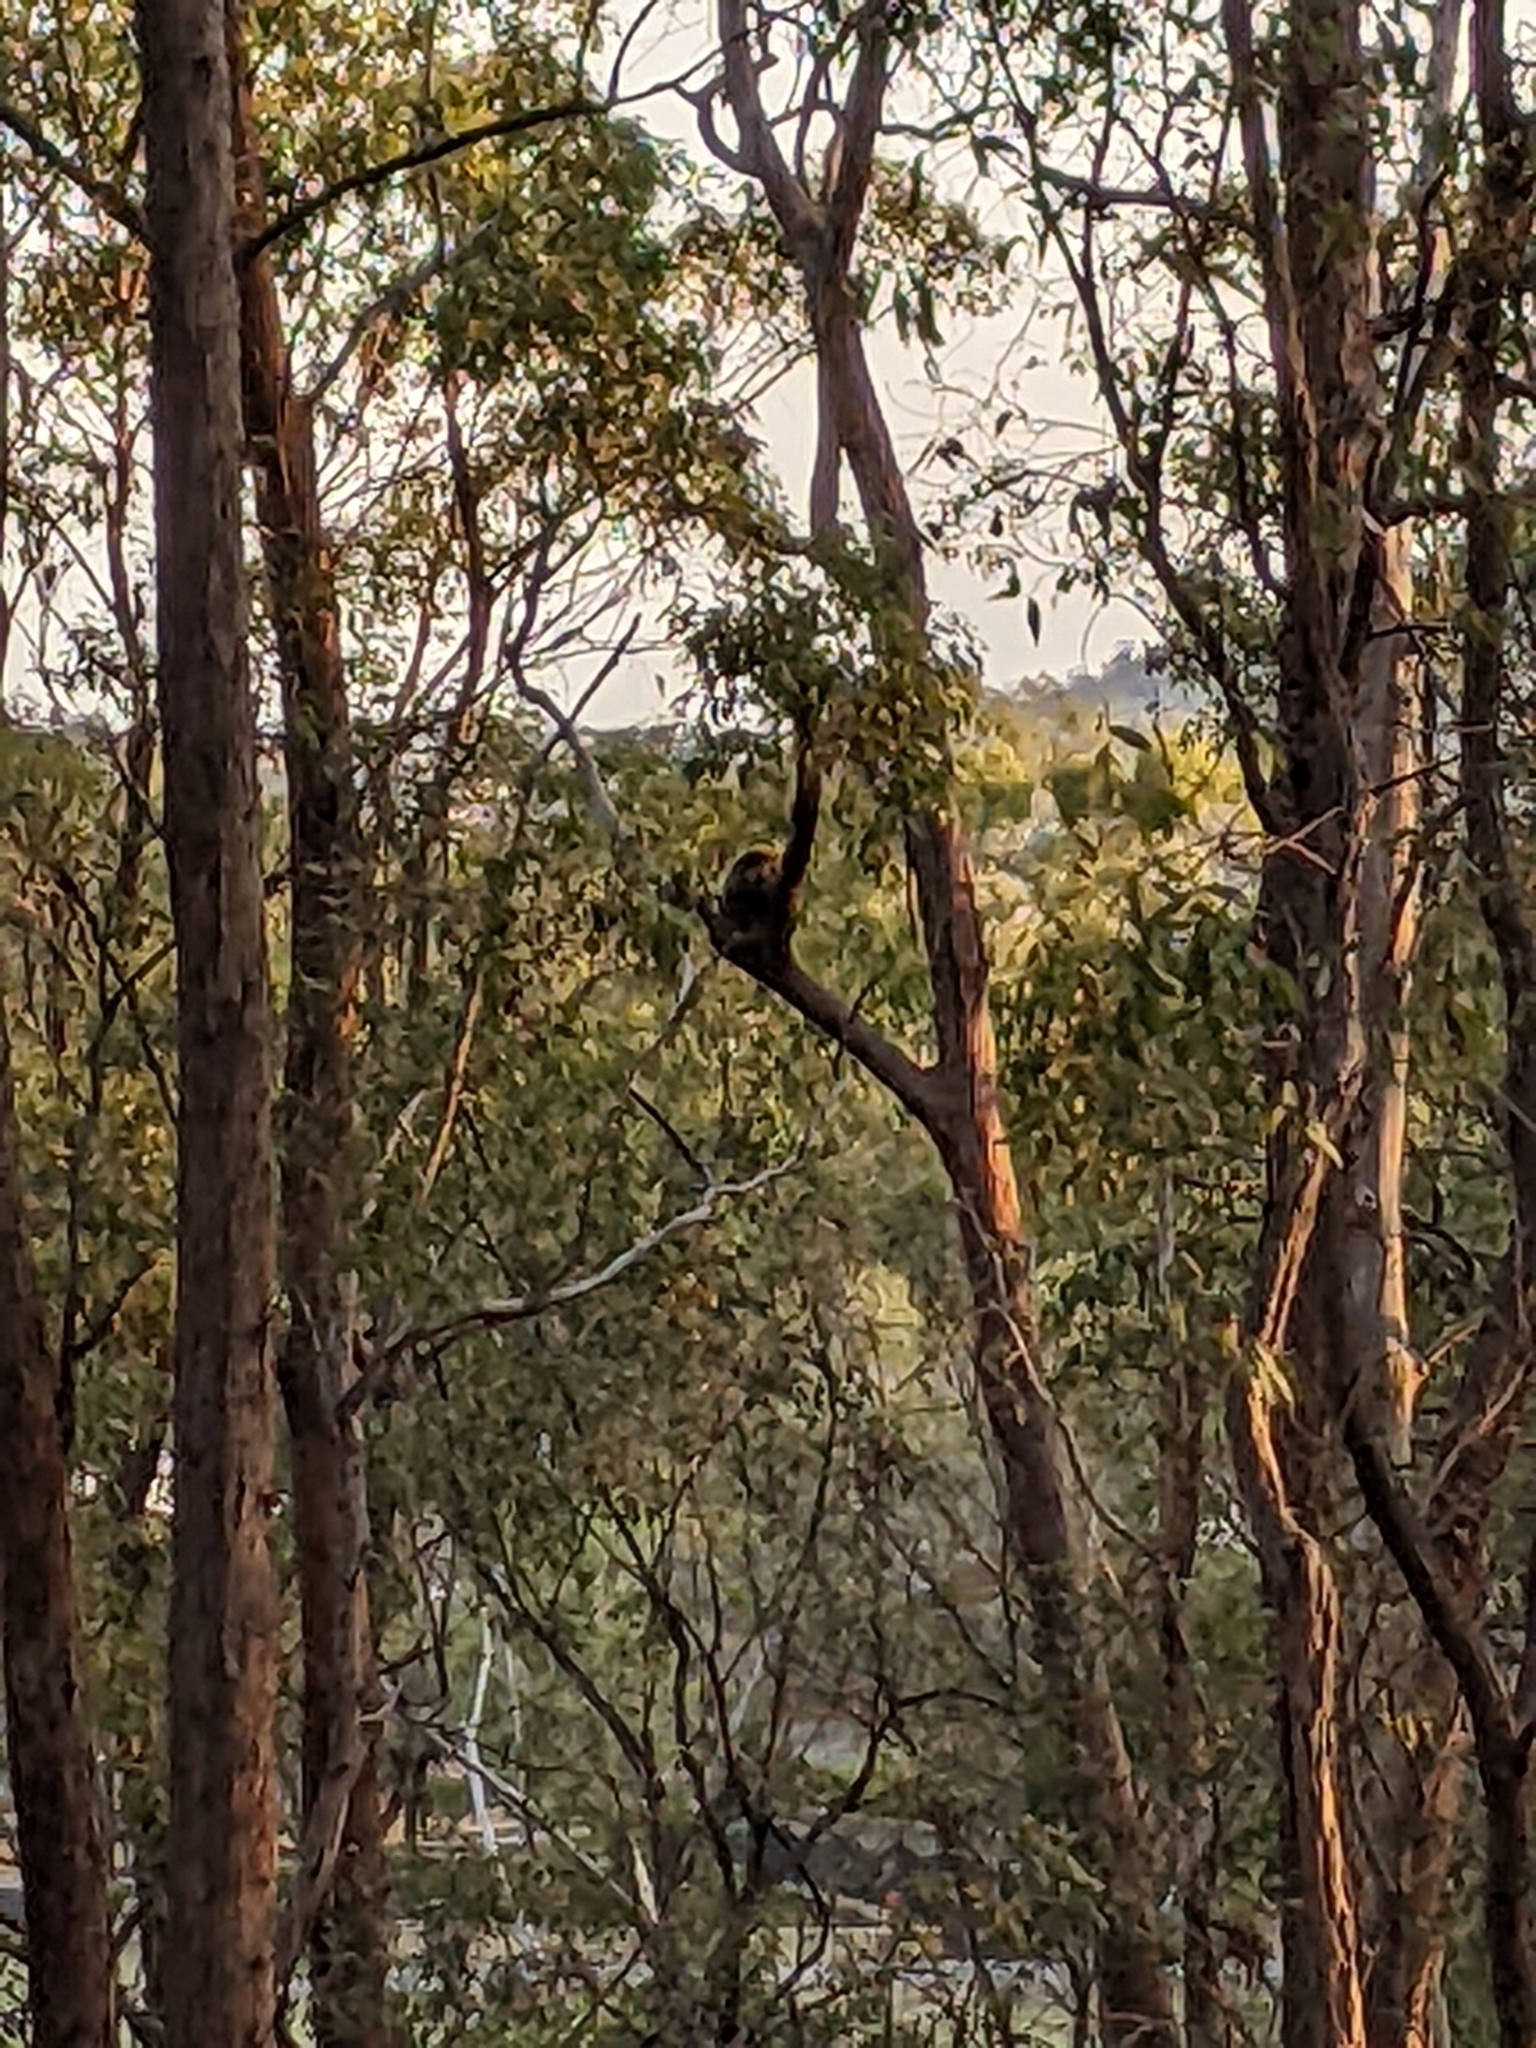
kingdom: Animalia
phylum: Chordata
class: Mammalia
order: Diprotodontia
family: Phascolarctidae
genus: Phascolarctos
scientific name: Phascolarctos cinereus
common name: Koala
